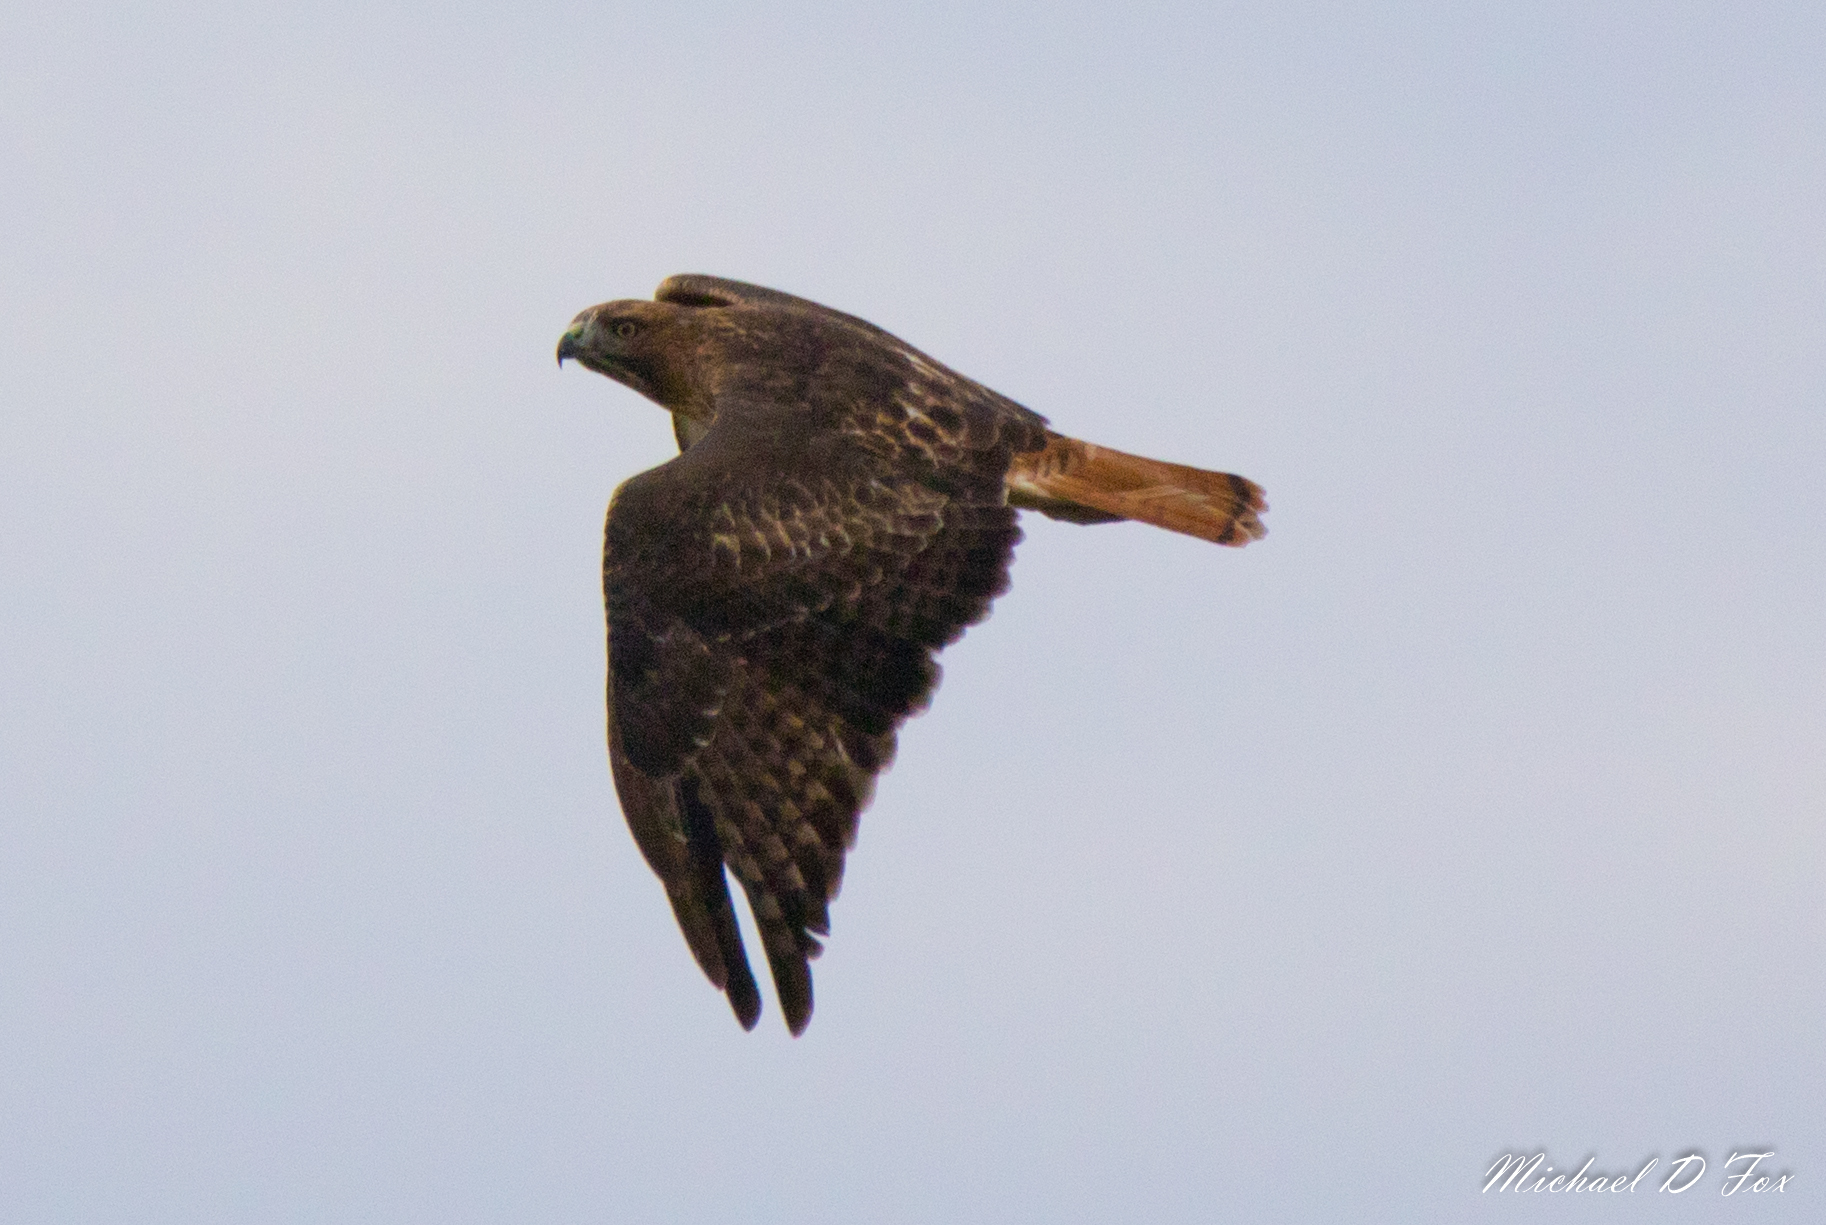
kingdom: Animalia
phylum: Chordata
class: Aves
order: Accipitriformes
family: Accipitridae
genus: Buteo
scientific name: Buteo jamaicensis
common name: Red-tailed hawk
